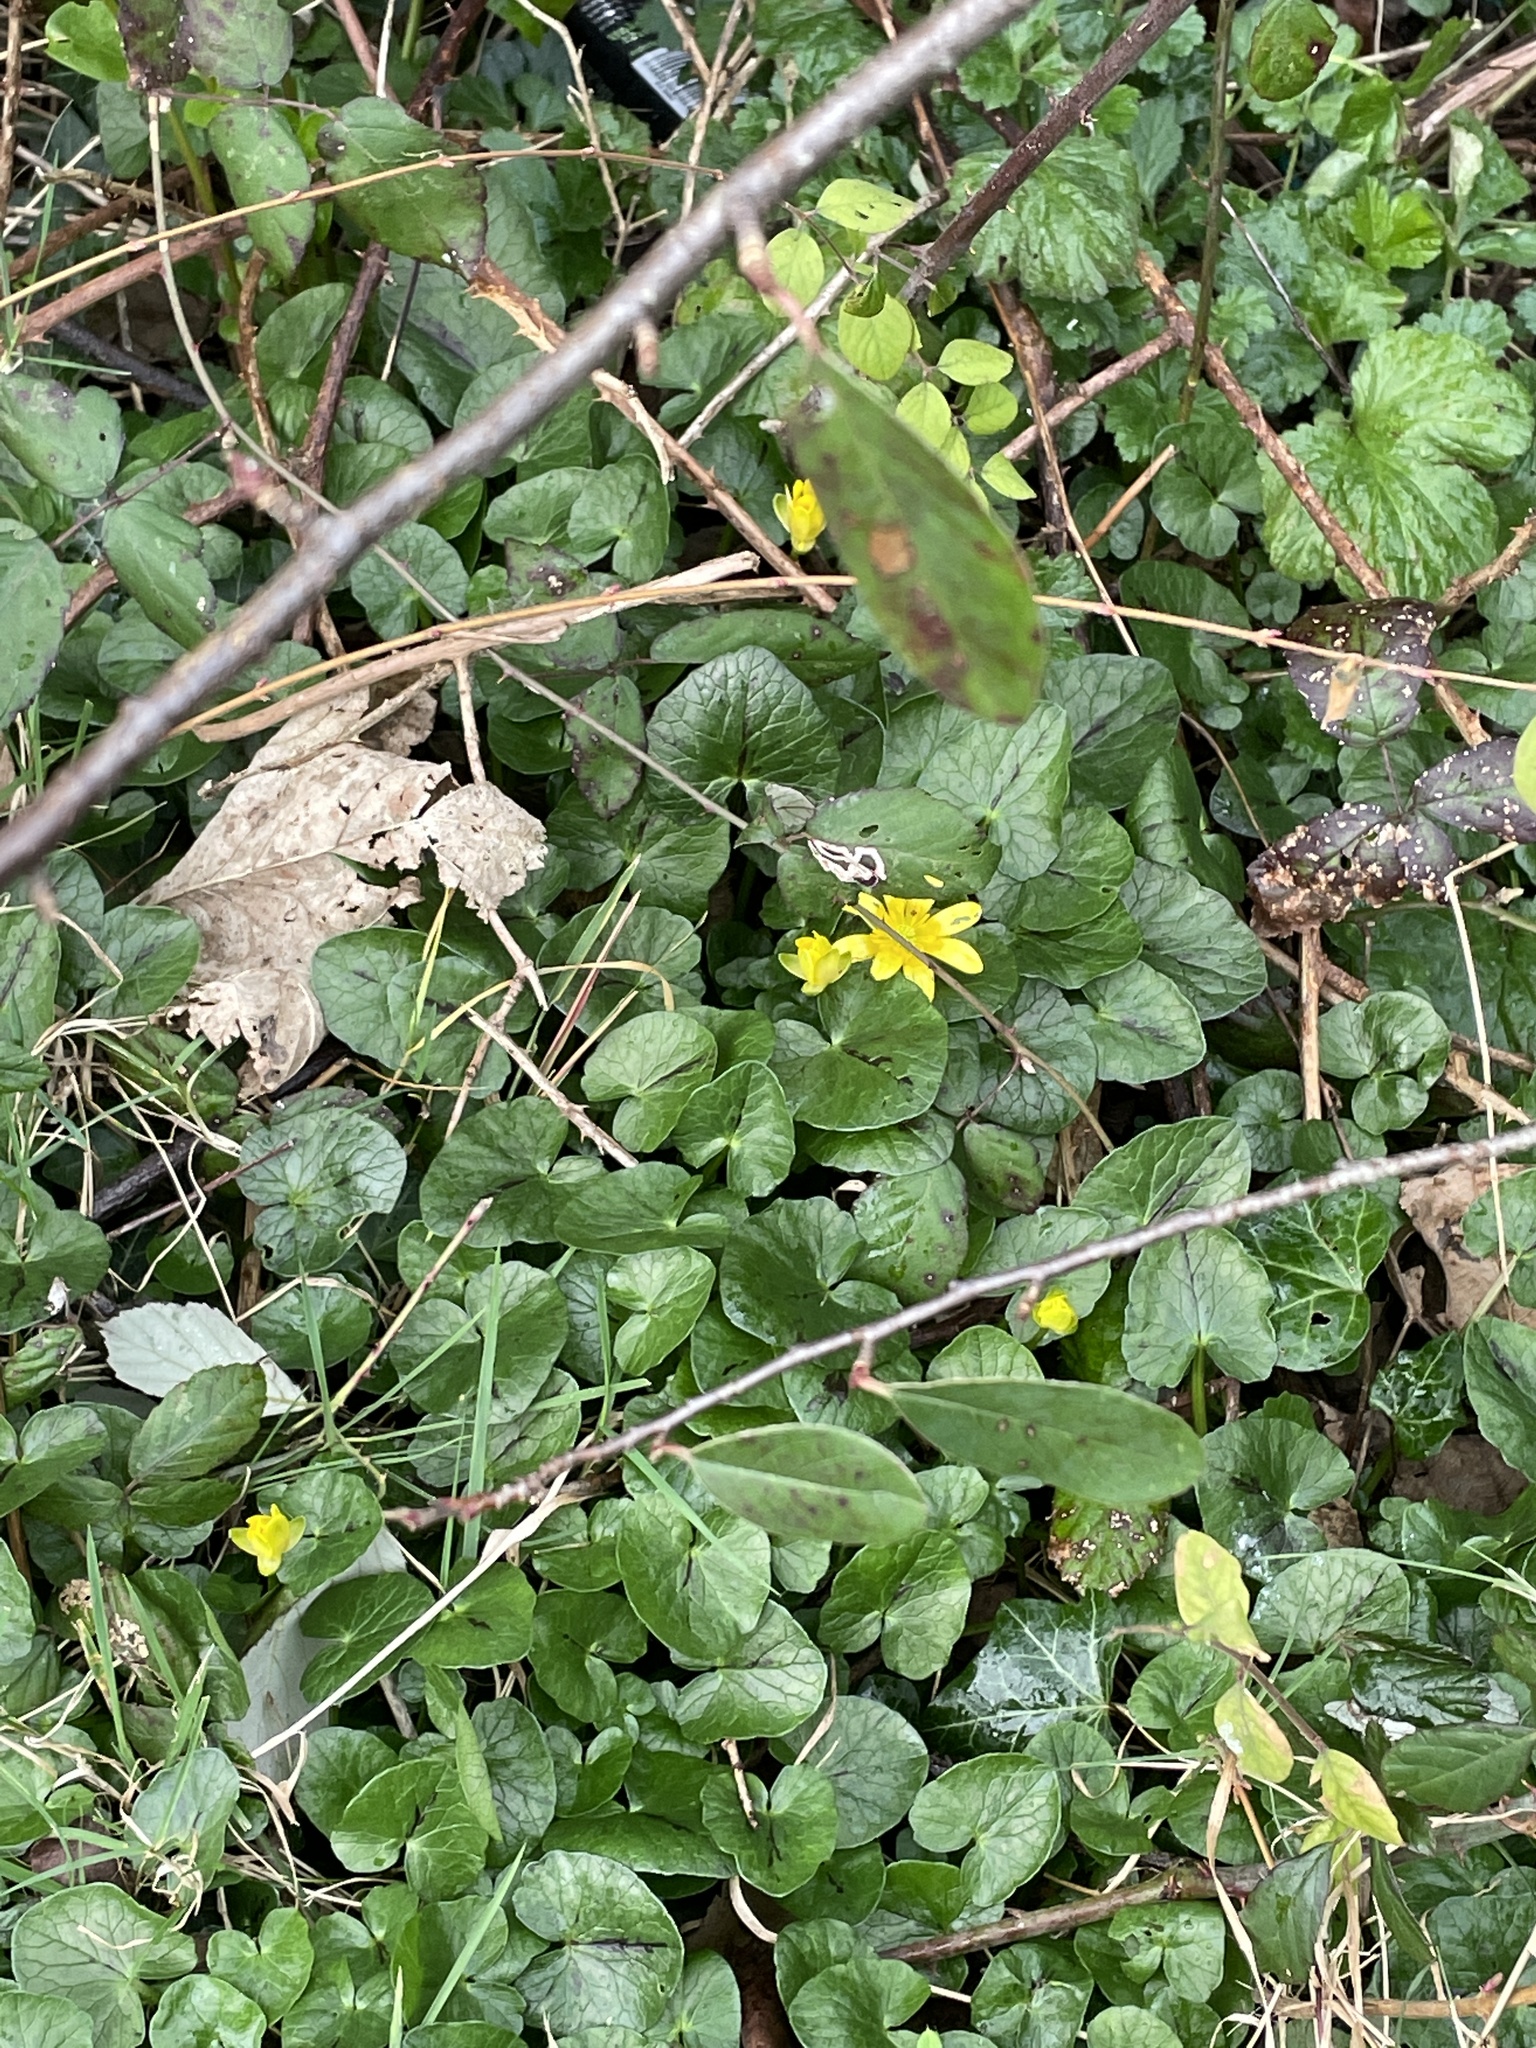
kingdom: Plantae
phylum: Tracheophyta
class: Magnoliopsida
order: Ranunculales
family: Ranunculaceae
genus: Ficaria
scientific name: Ficaria verna
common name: Lesser celandine
